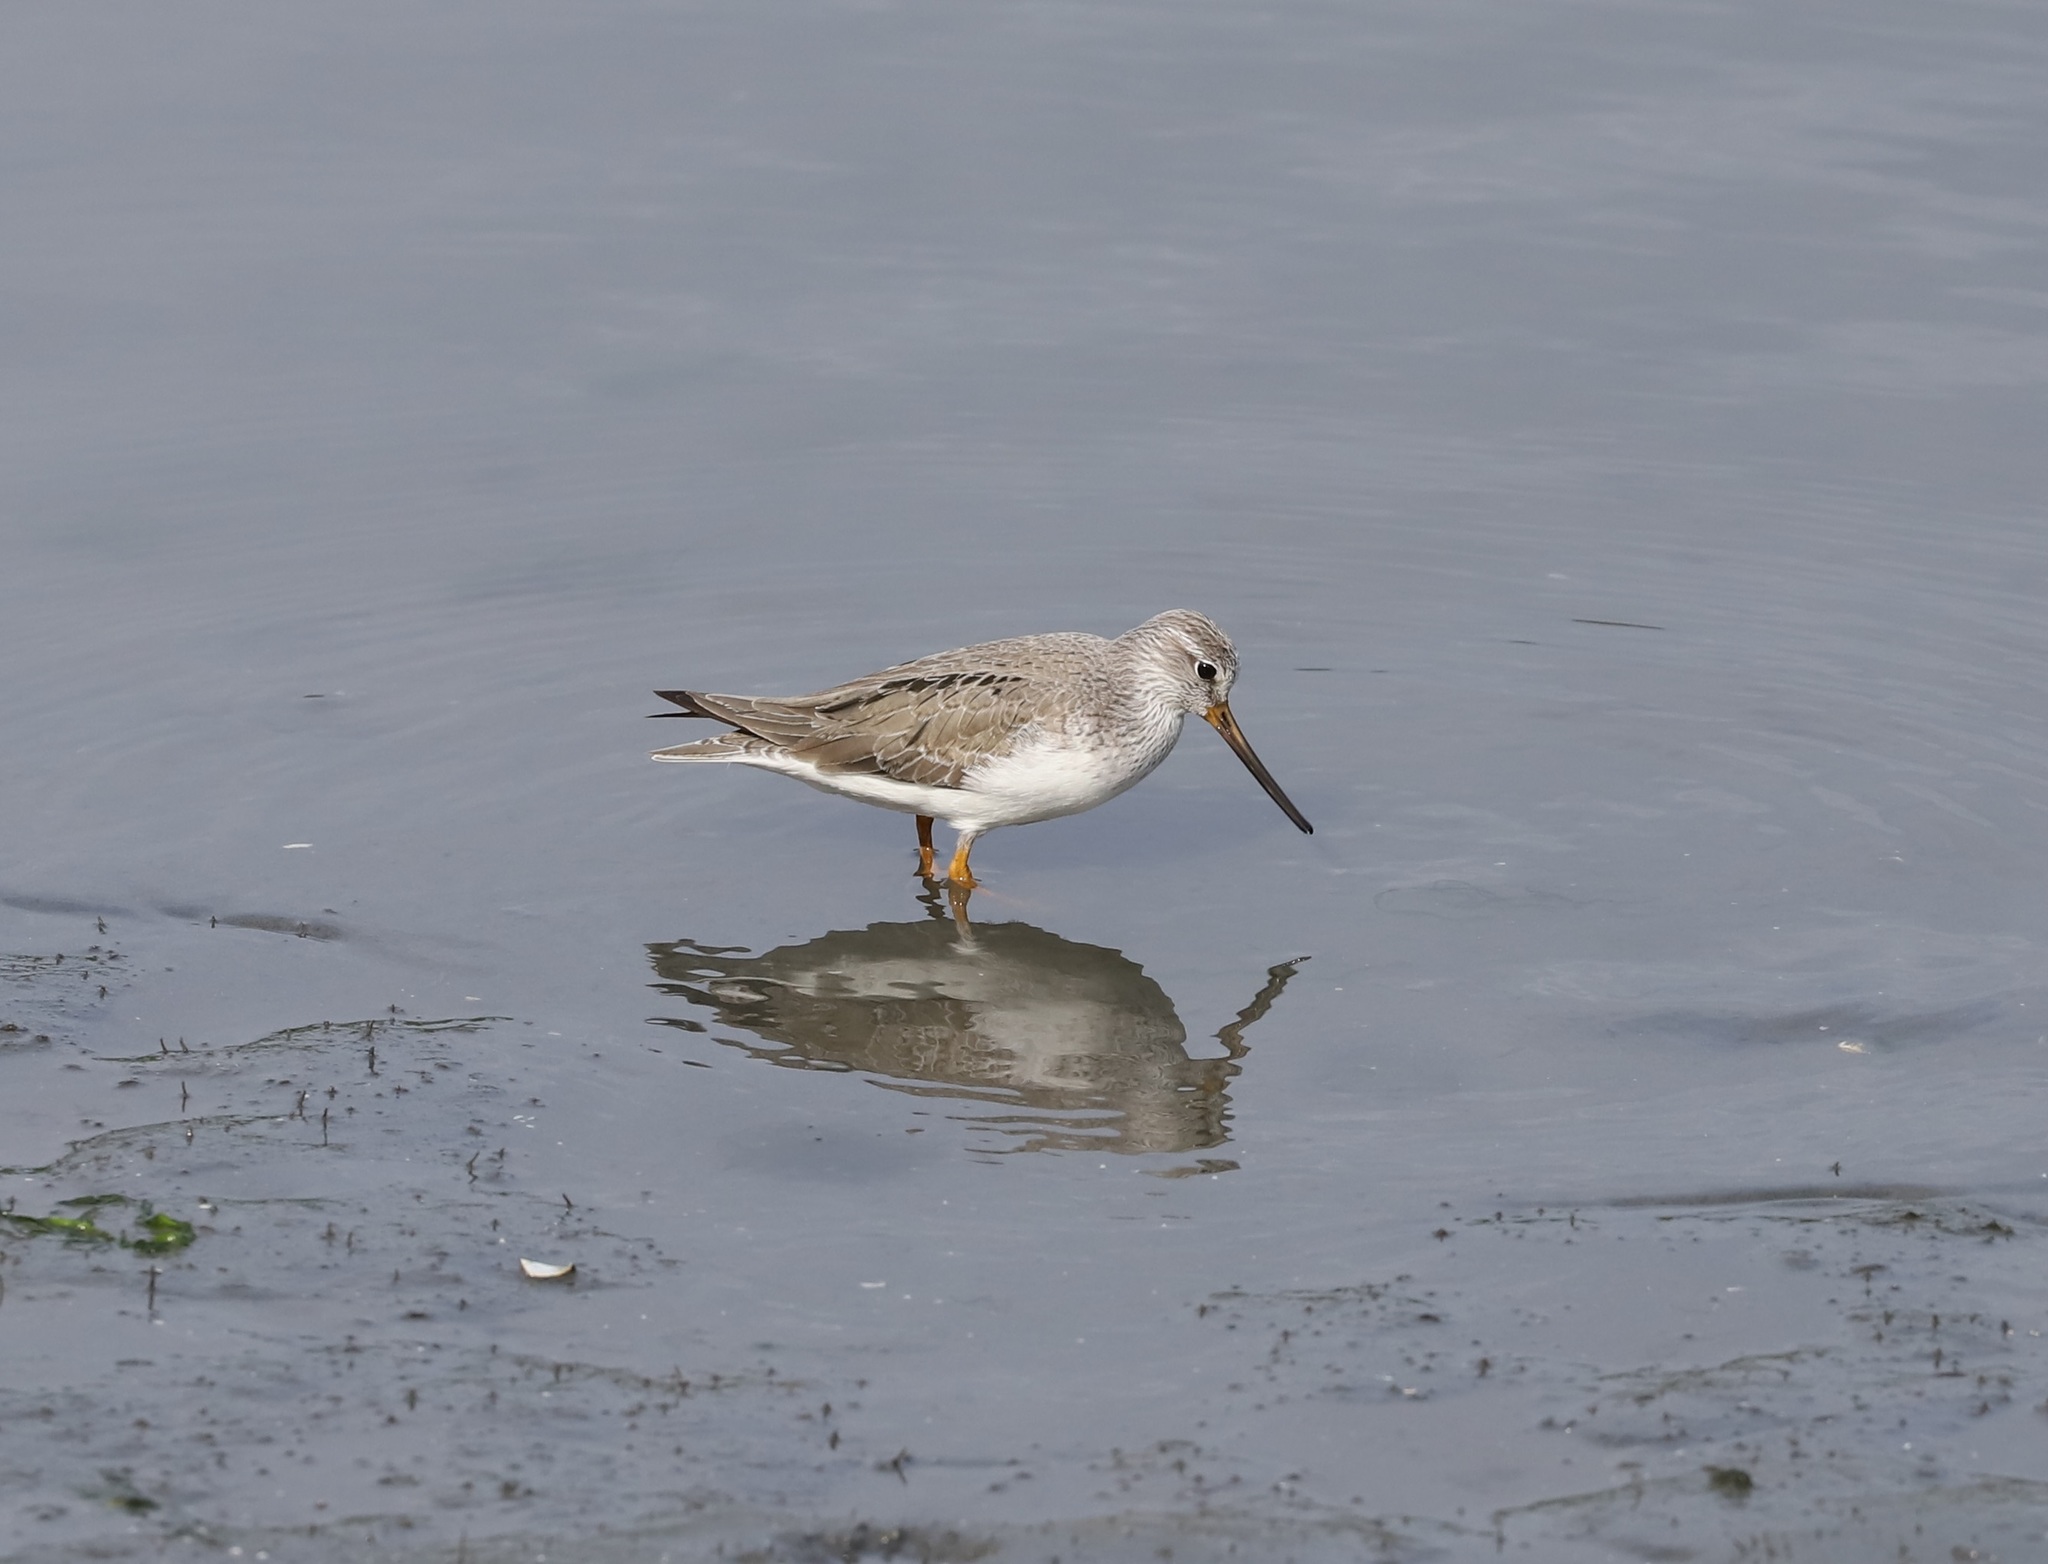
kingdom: Animalia
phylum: Chordata
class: Aves
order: Charadriiformes
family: Scolopacidae
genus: Xenus
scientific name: Xenus cinereus
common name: Terek sandpiper
